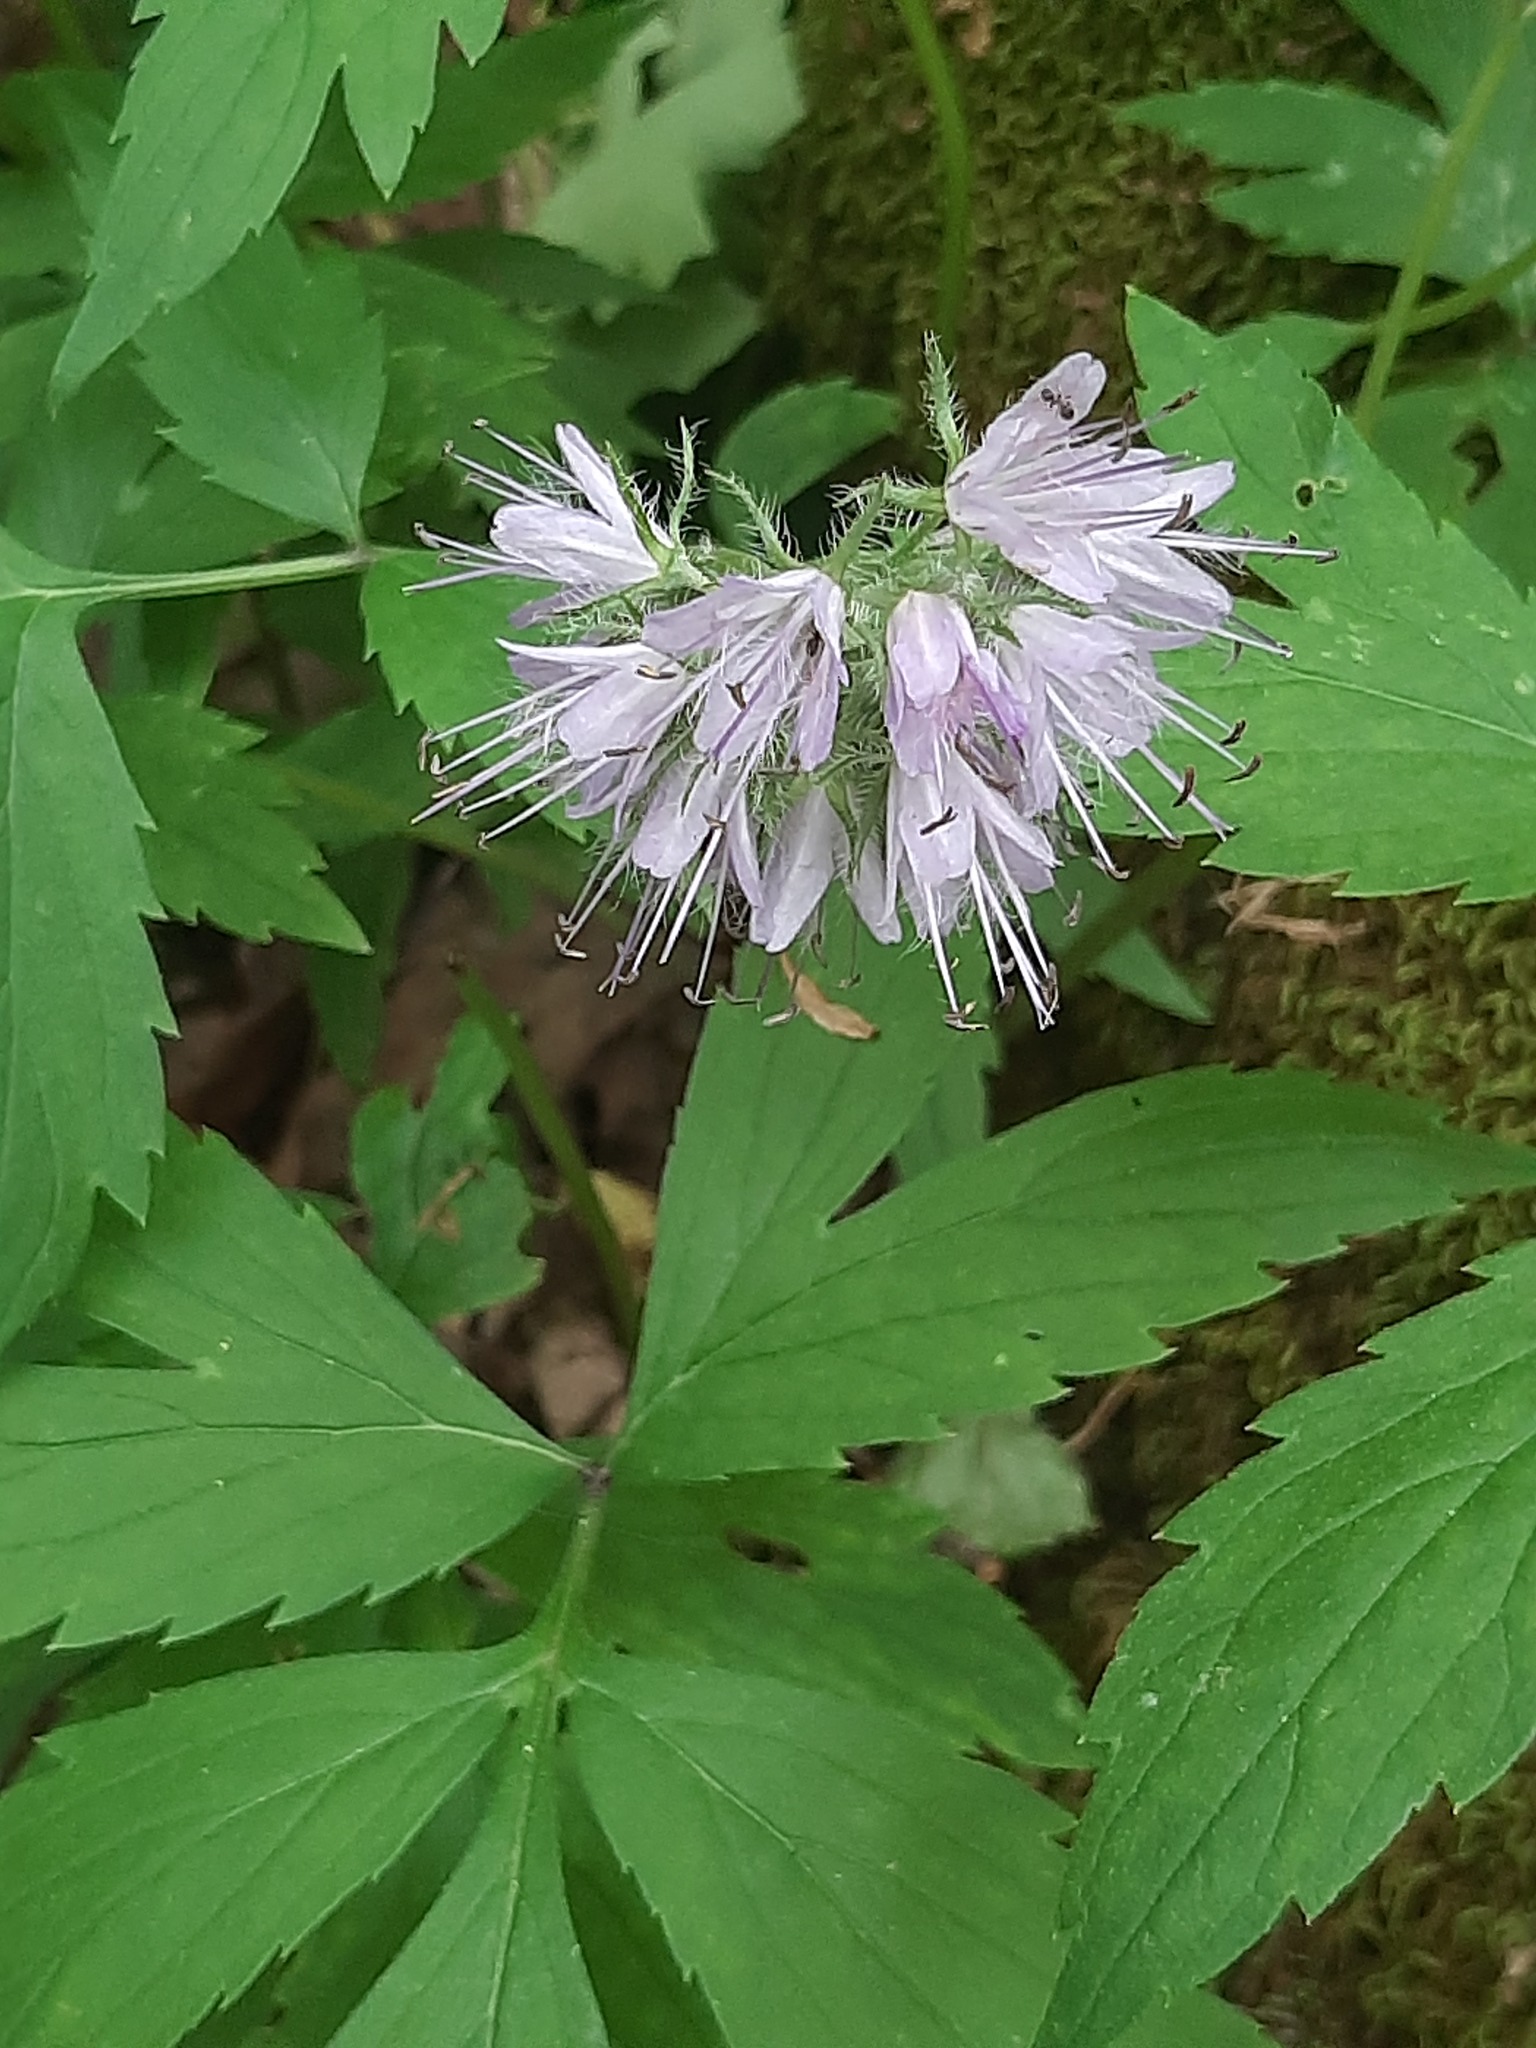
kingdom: Plantae
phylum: Tracheophyta
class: Magnoliopsida
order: Boraginales
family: Hydrophyllaceae
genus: Hydrophyllum
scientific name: Hydrophyllum virginianum
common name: Virginia waterleaf
